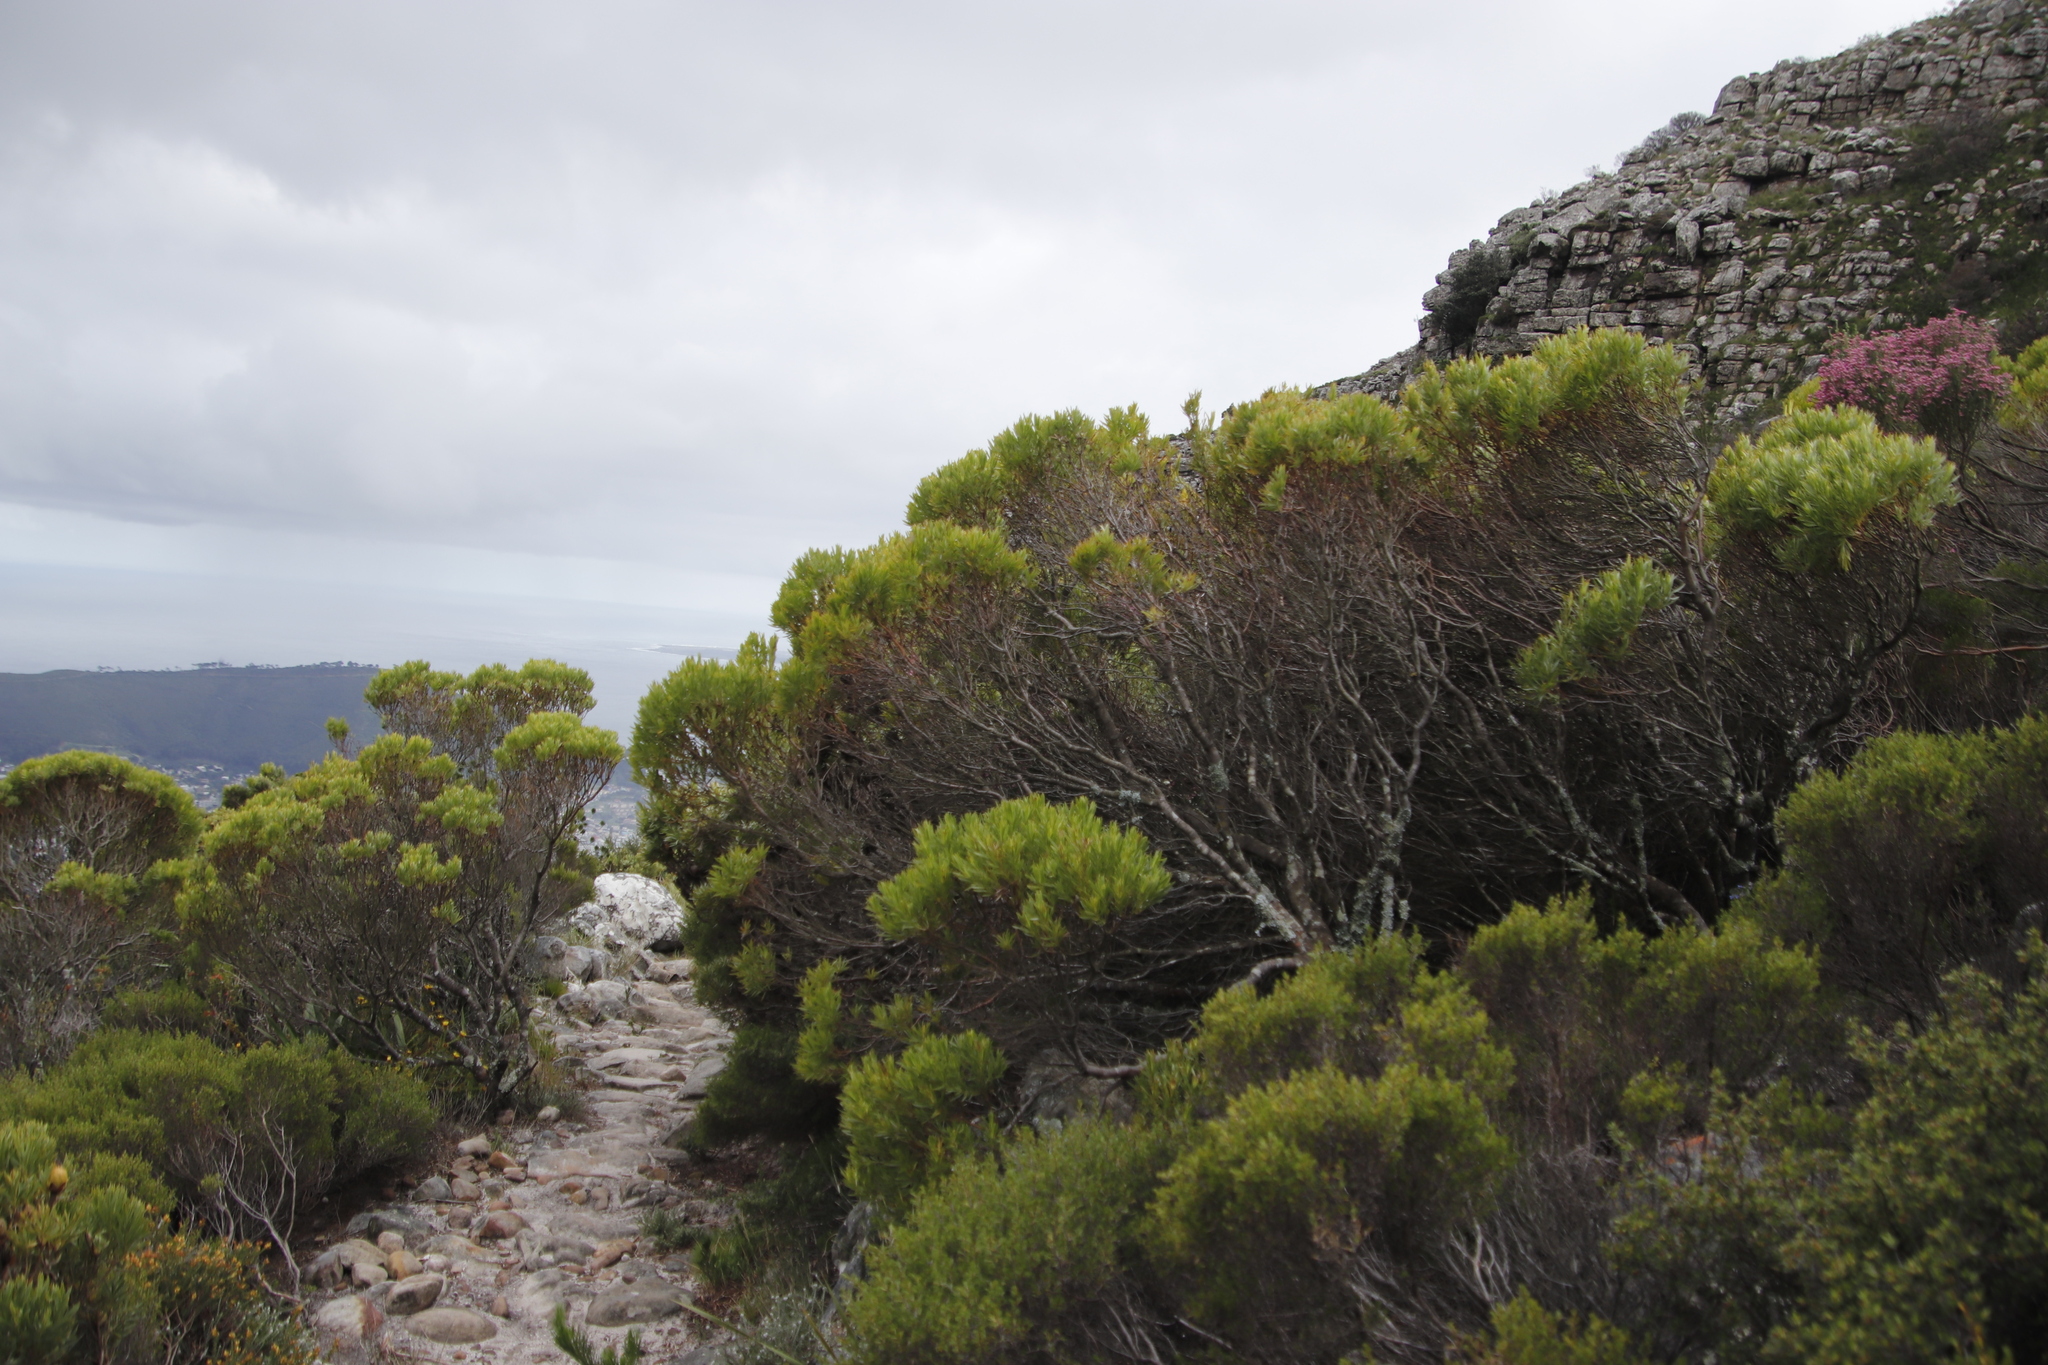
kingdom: Plantae
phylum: Tracheophyta
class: Magnoliopsida
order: Proteales
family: Proteaceae
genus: Leucadendron
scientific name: Leucadendron xanthoconus
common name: Sickle-leaf conebush
